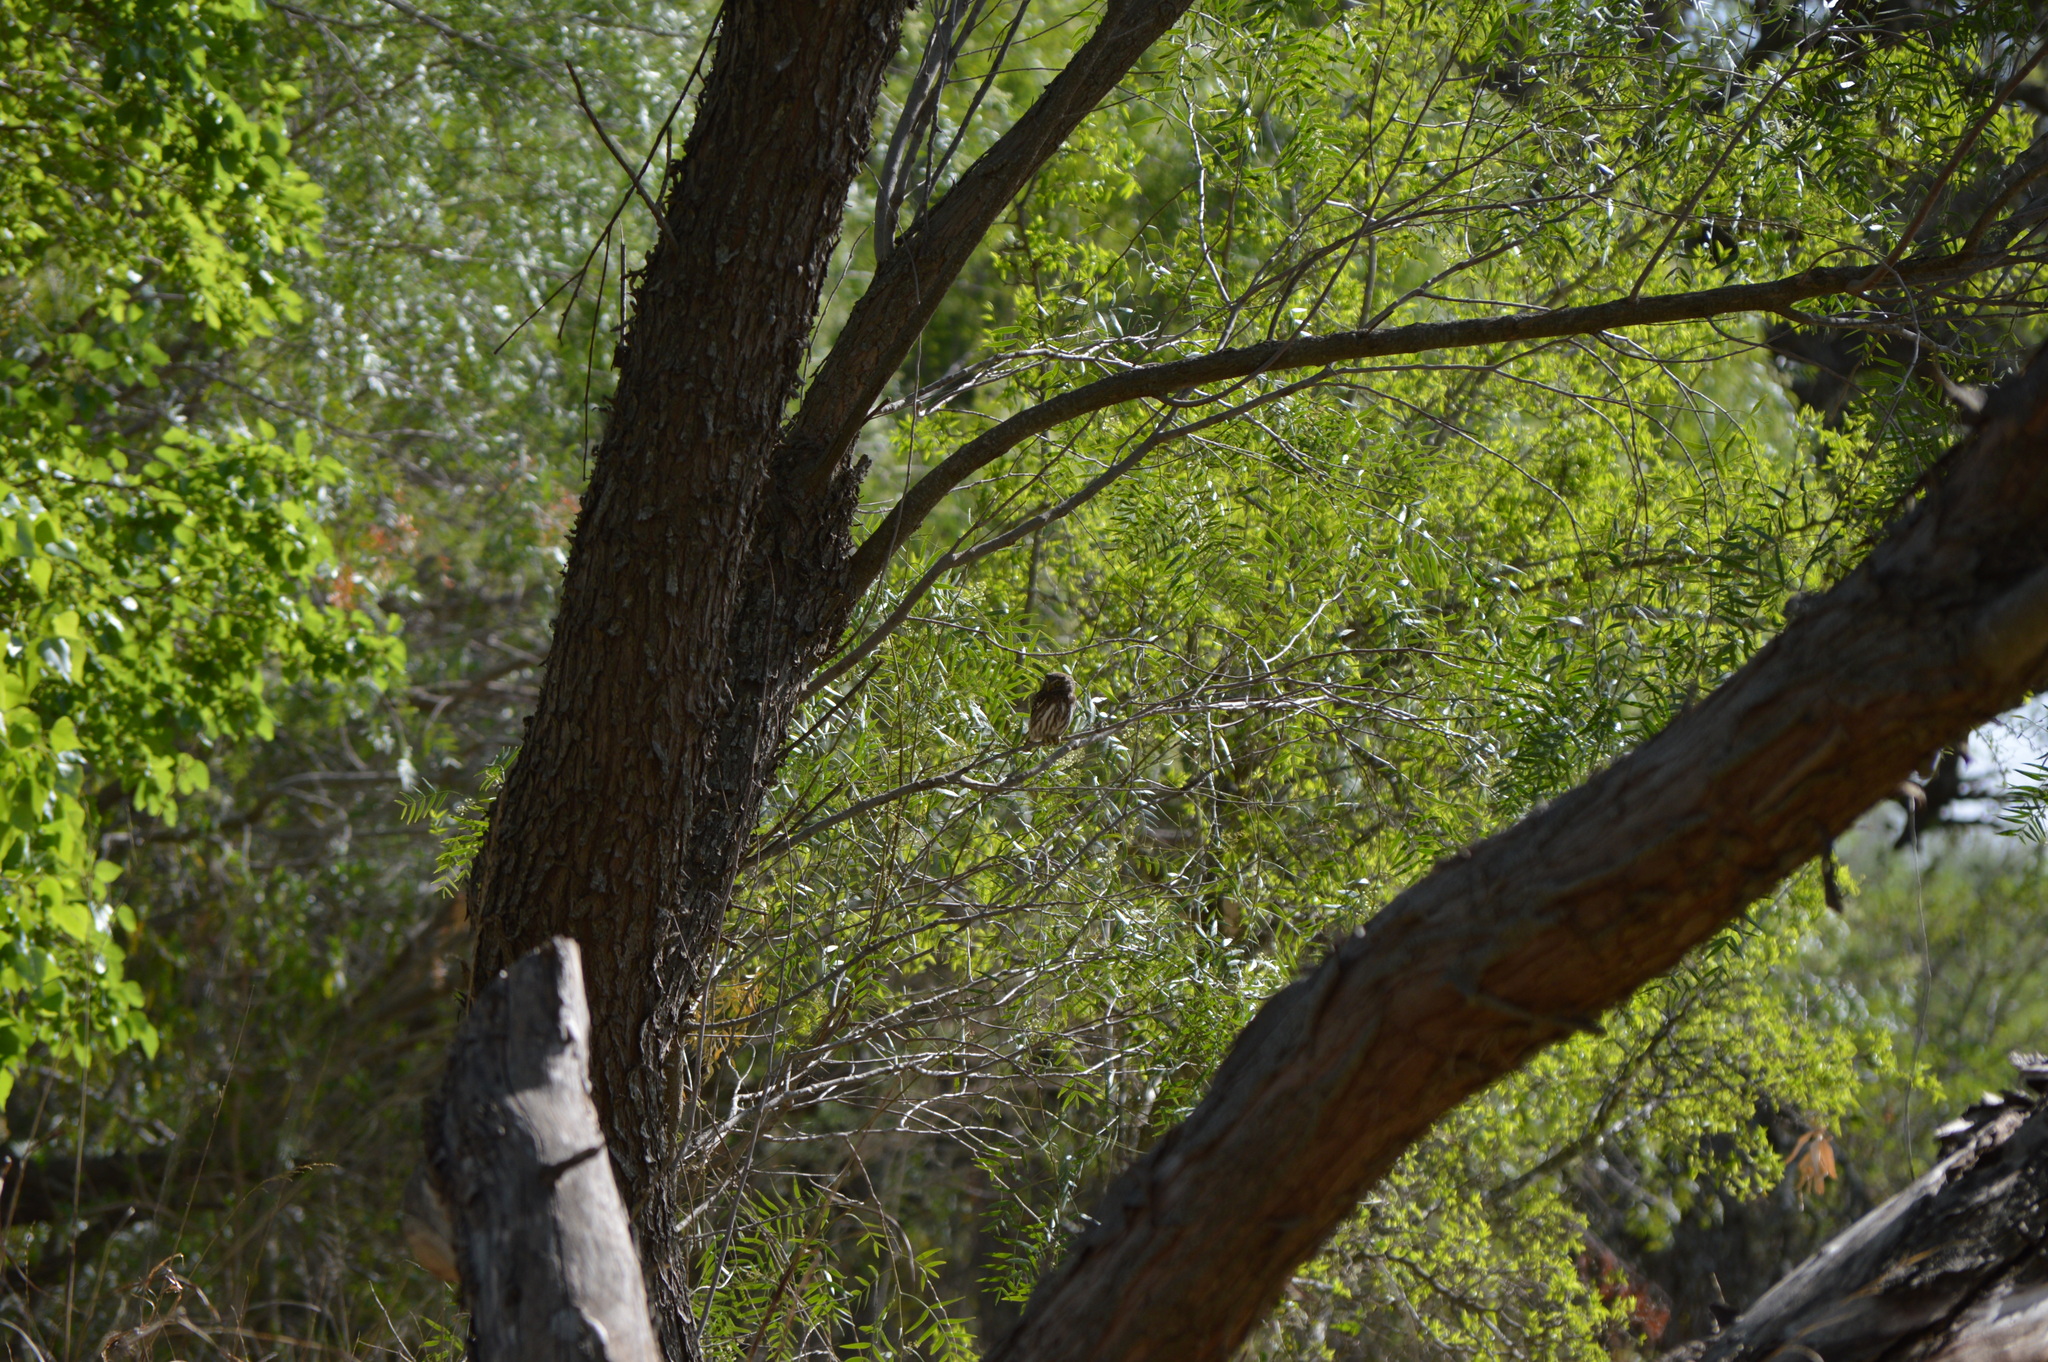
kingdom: Animalia
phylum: Chordata
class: Aves
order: Strigiformes
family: Strigidae
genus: Glaucidium
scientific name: Glaucidium brasilianum
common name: Ferruginous pygmy-owl
